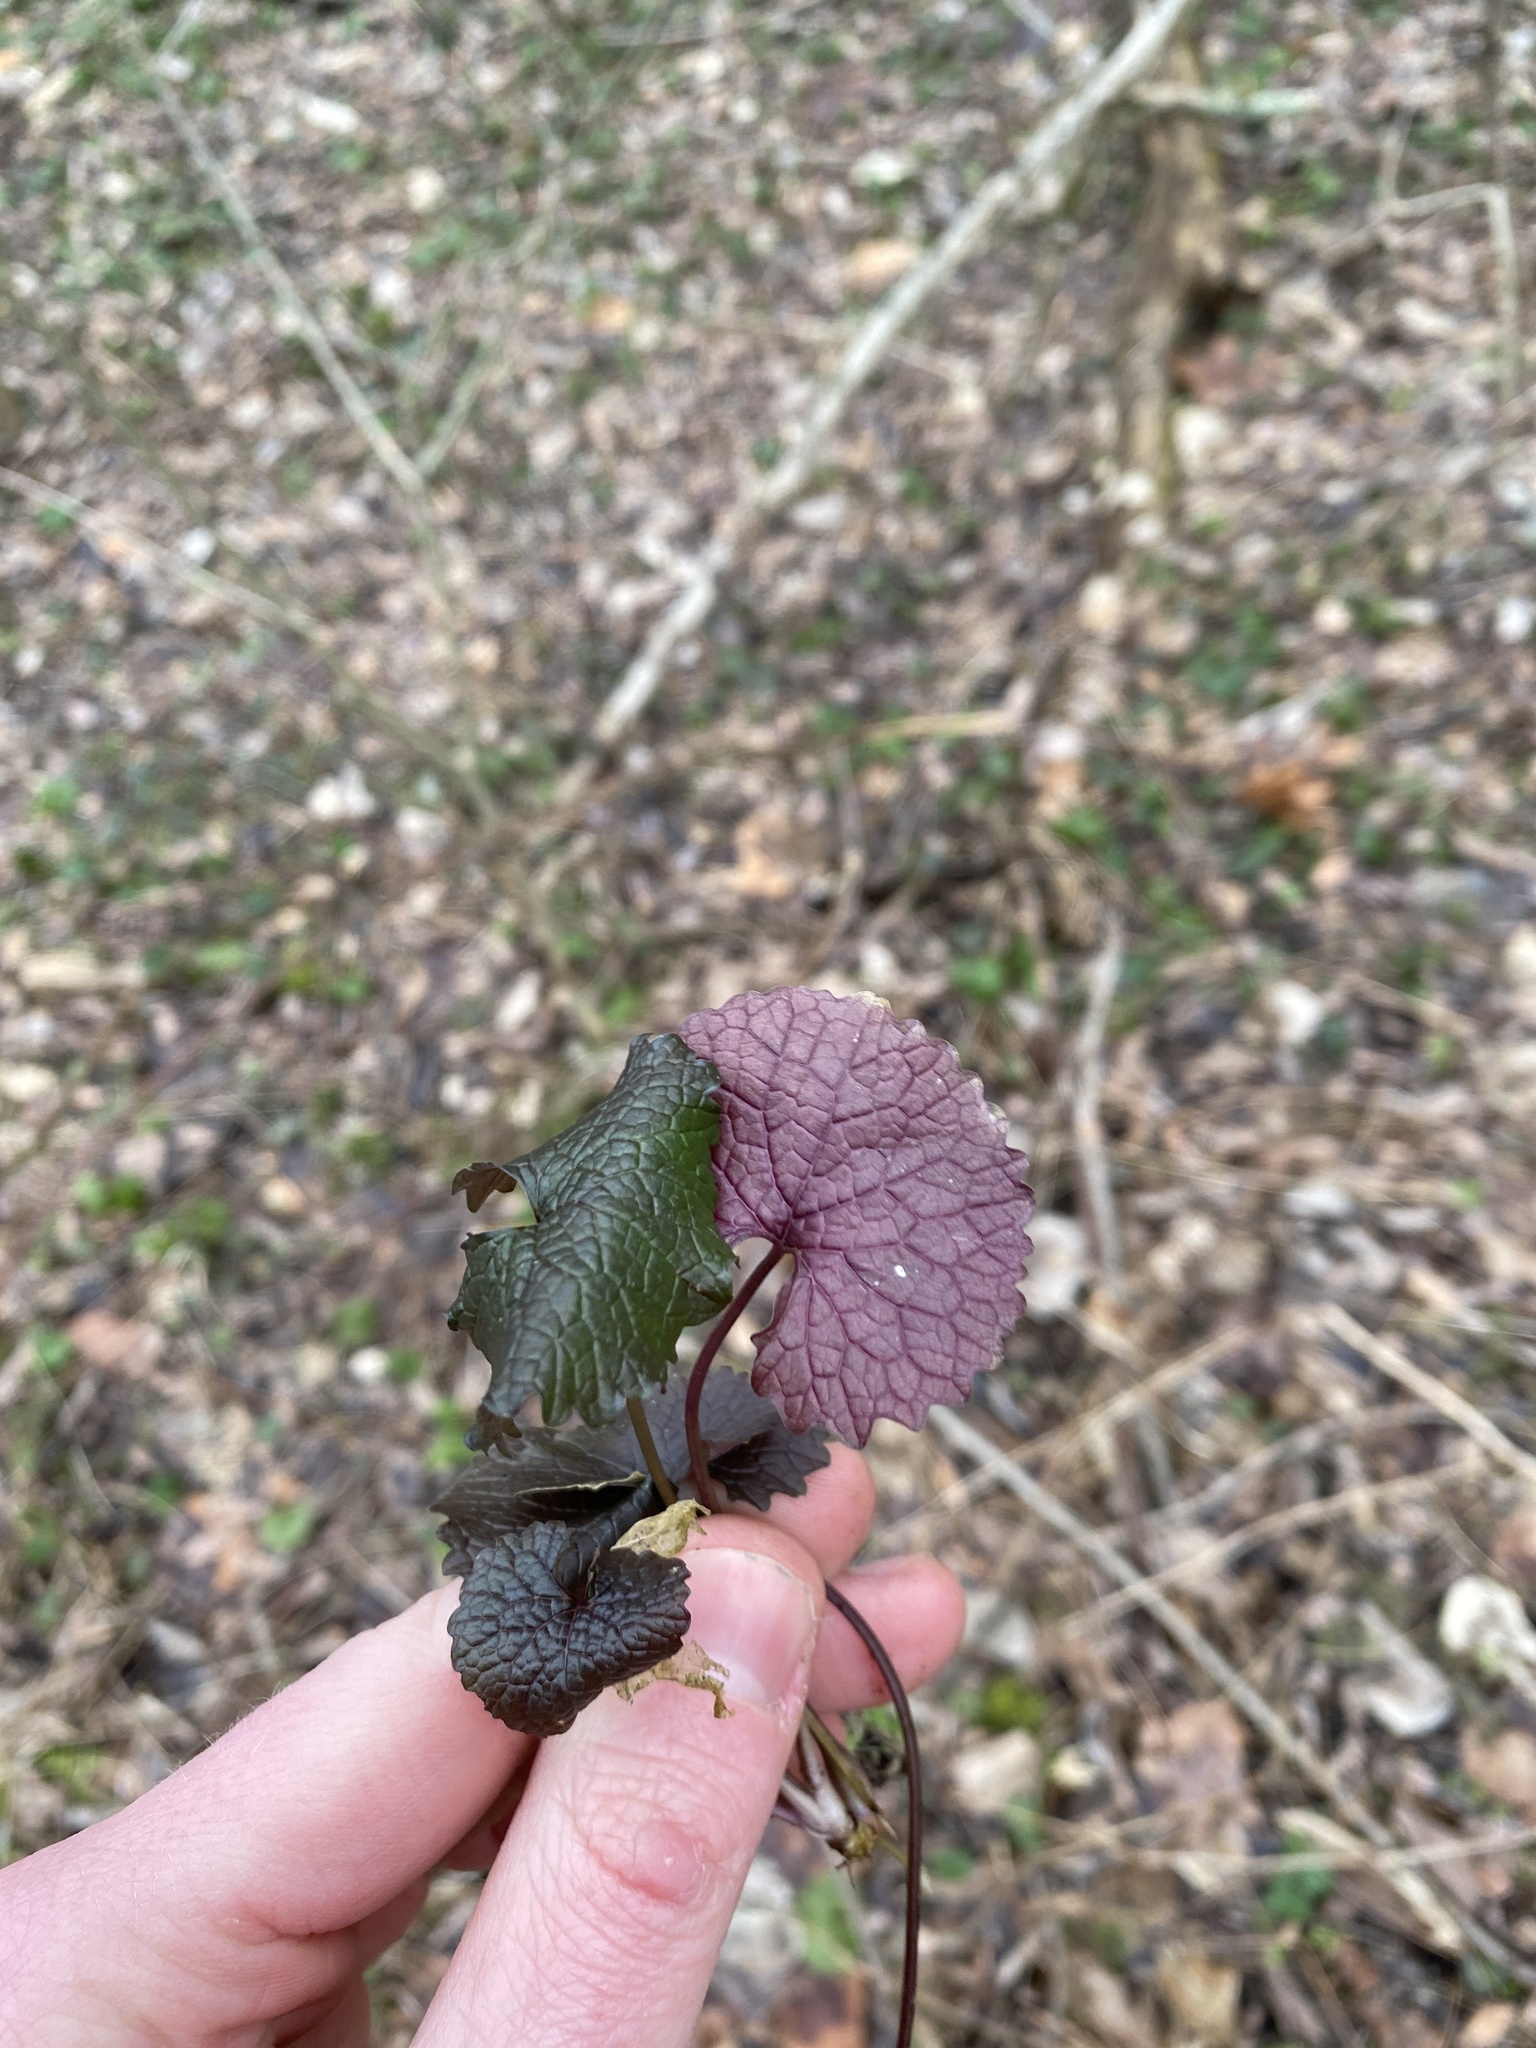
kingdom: Plantae
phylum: Tracheophyta
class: Magnoliopsida
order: Brassicales
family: Brassicaceae
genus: Alliaria
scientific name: Alliaria petiolata
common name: Garlic mustard
